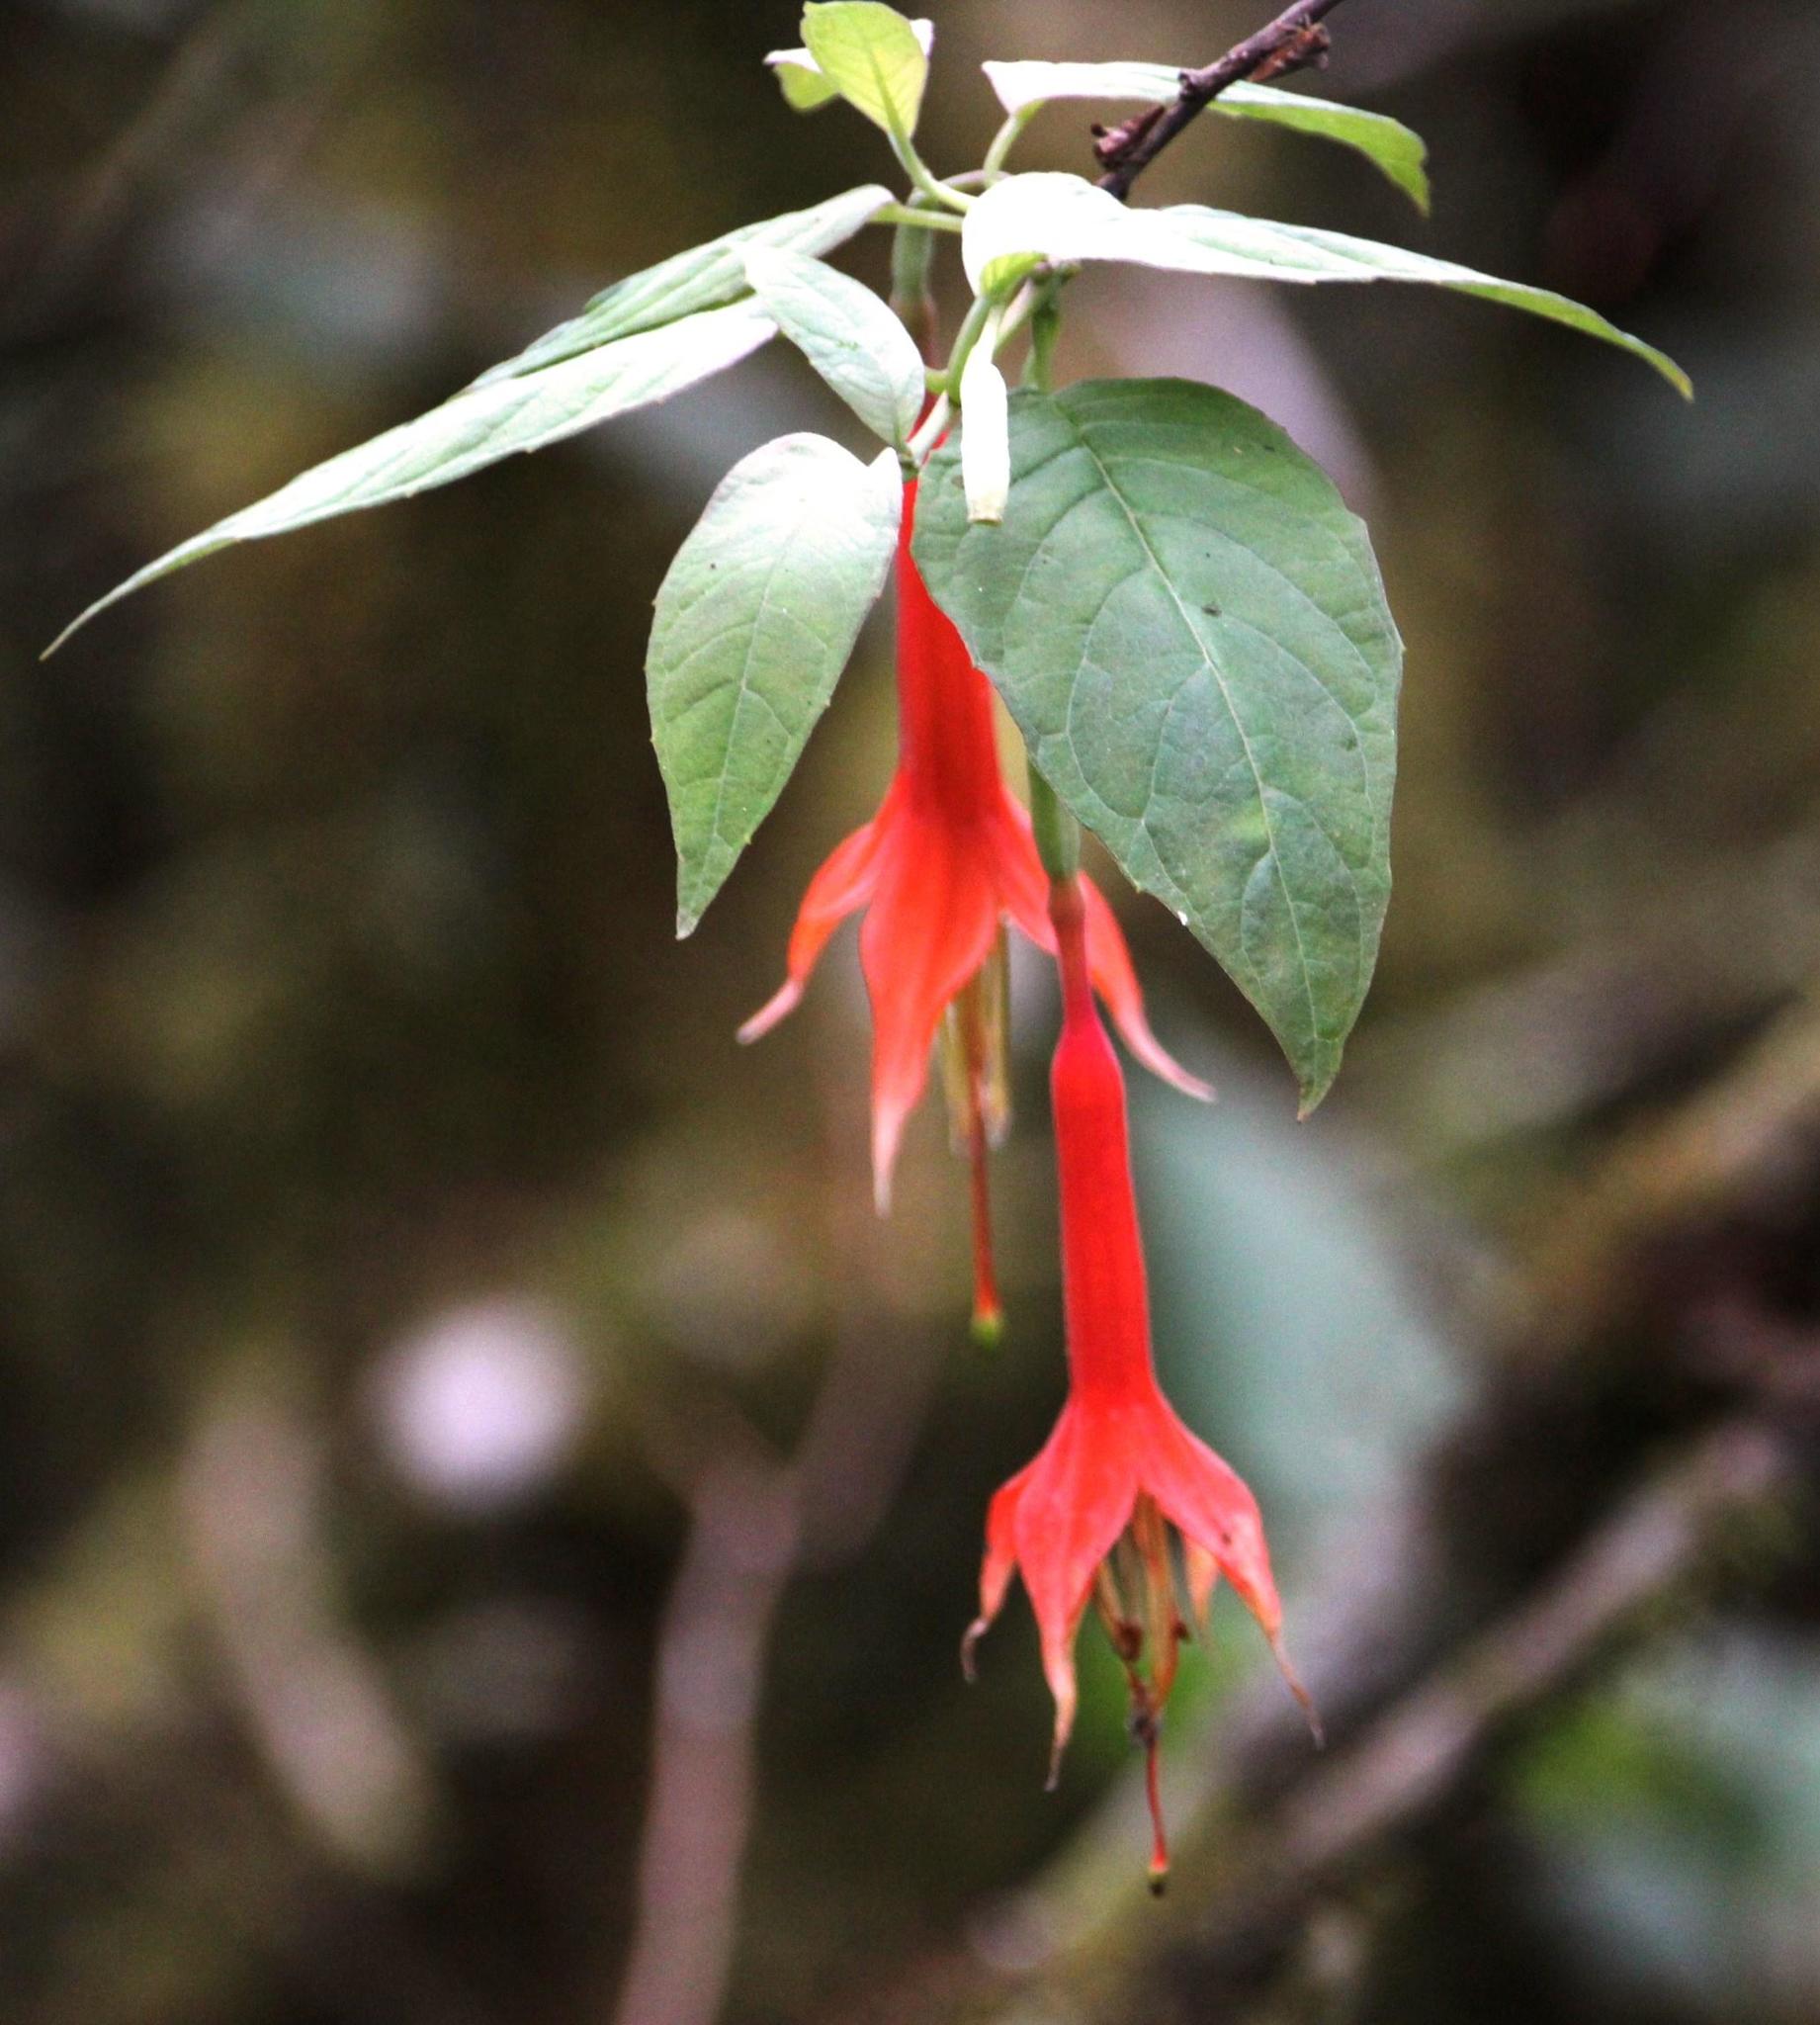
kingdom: Plantae
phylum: Tracheophyta
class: Magnoliopsida
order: Myrtales
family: Onagraceae
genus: Fuchsia
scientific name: Fuchsia tunariensis
